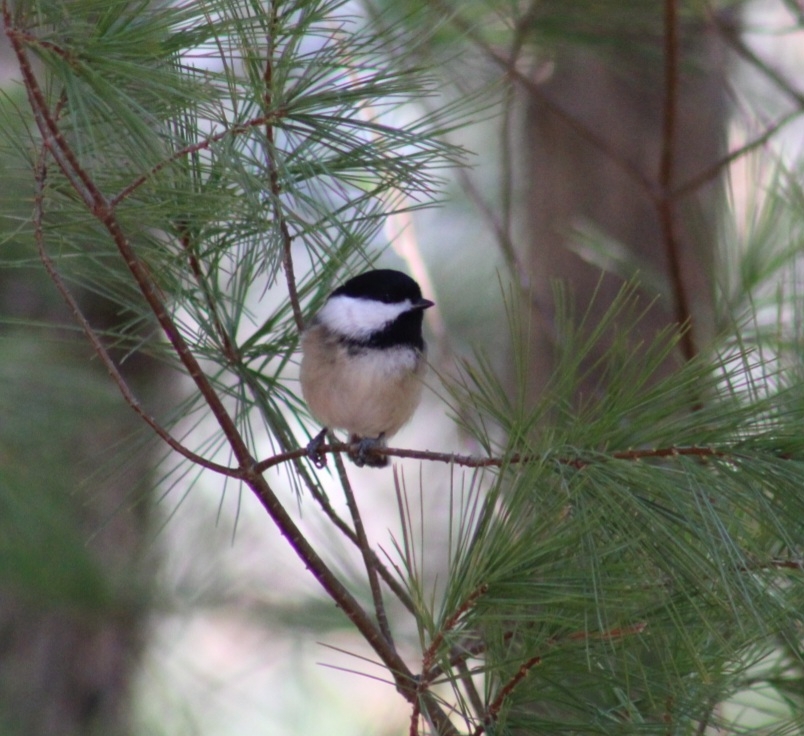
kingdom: Animalia
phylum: Chordata
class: Aves
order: Passeriformes
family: Paridae
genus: Poecile
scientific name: Poecile atricapillus
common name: Black-capped chickadee
